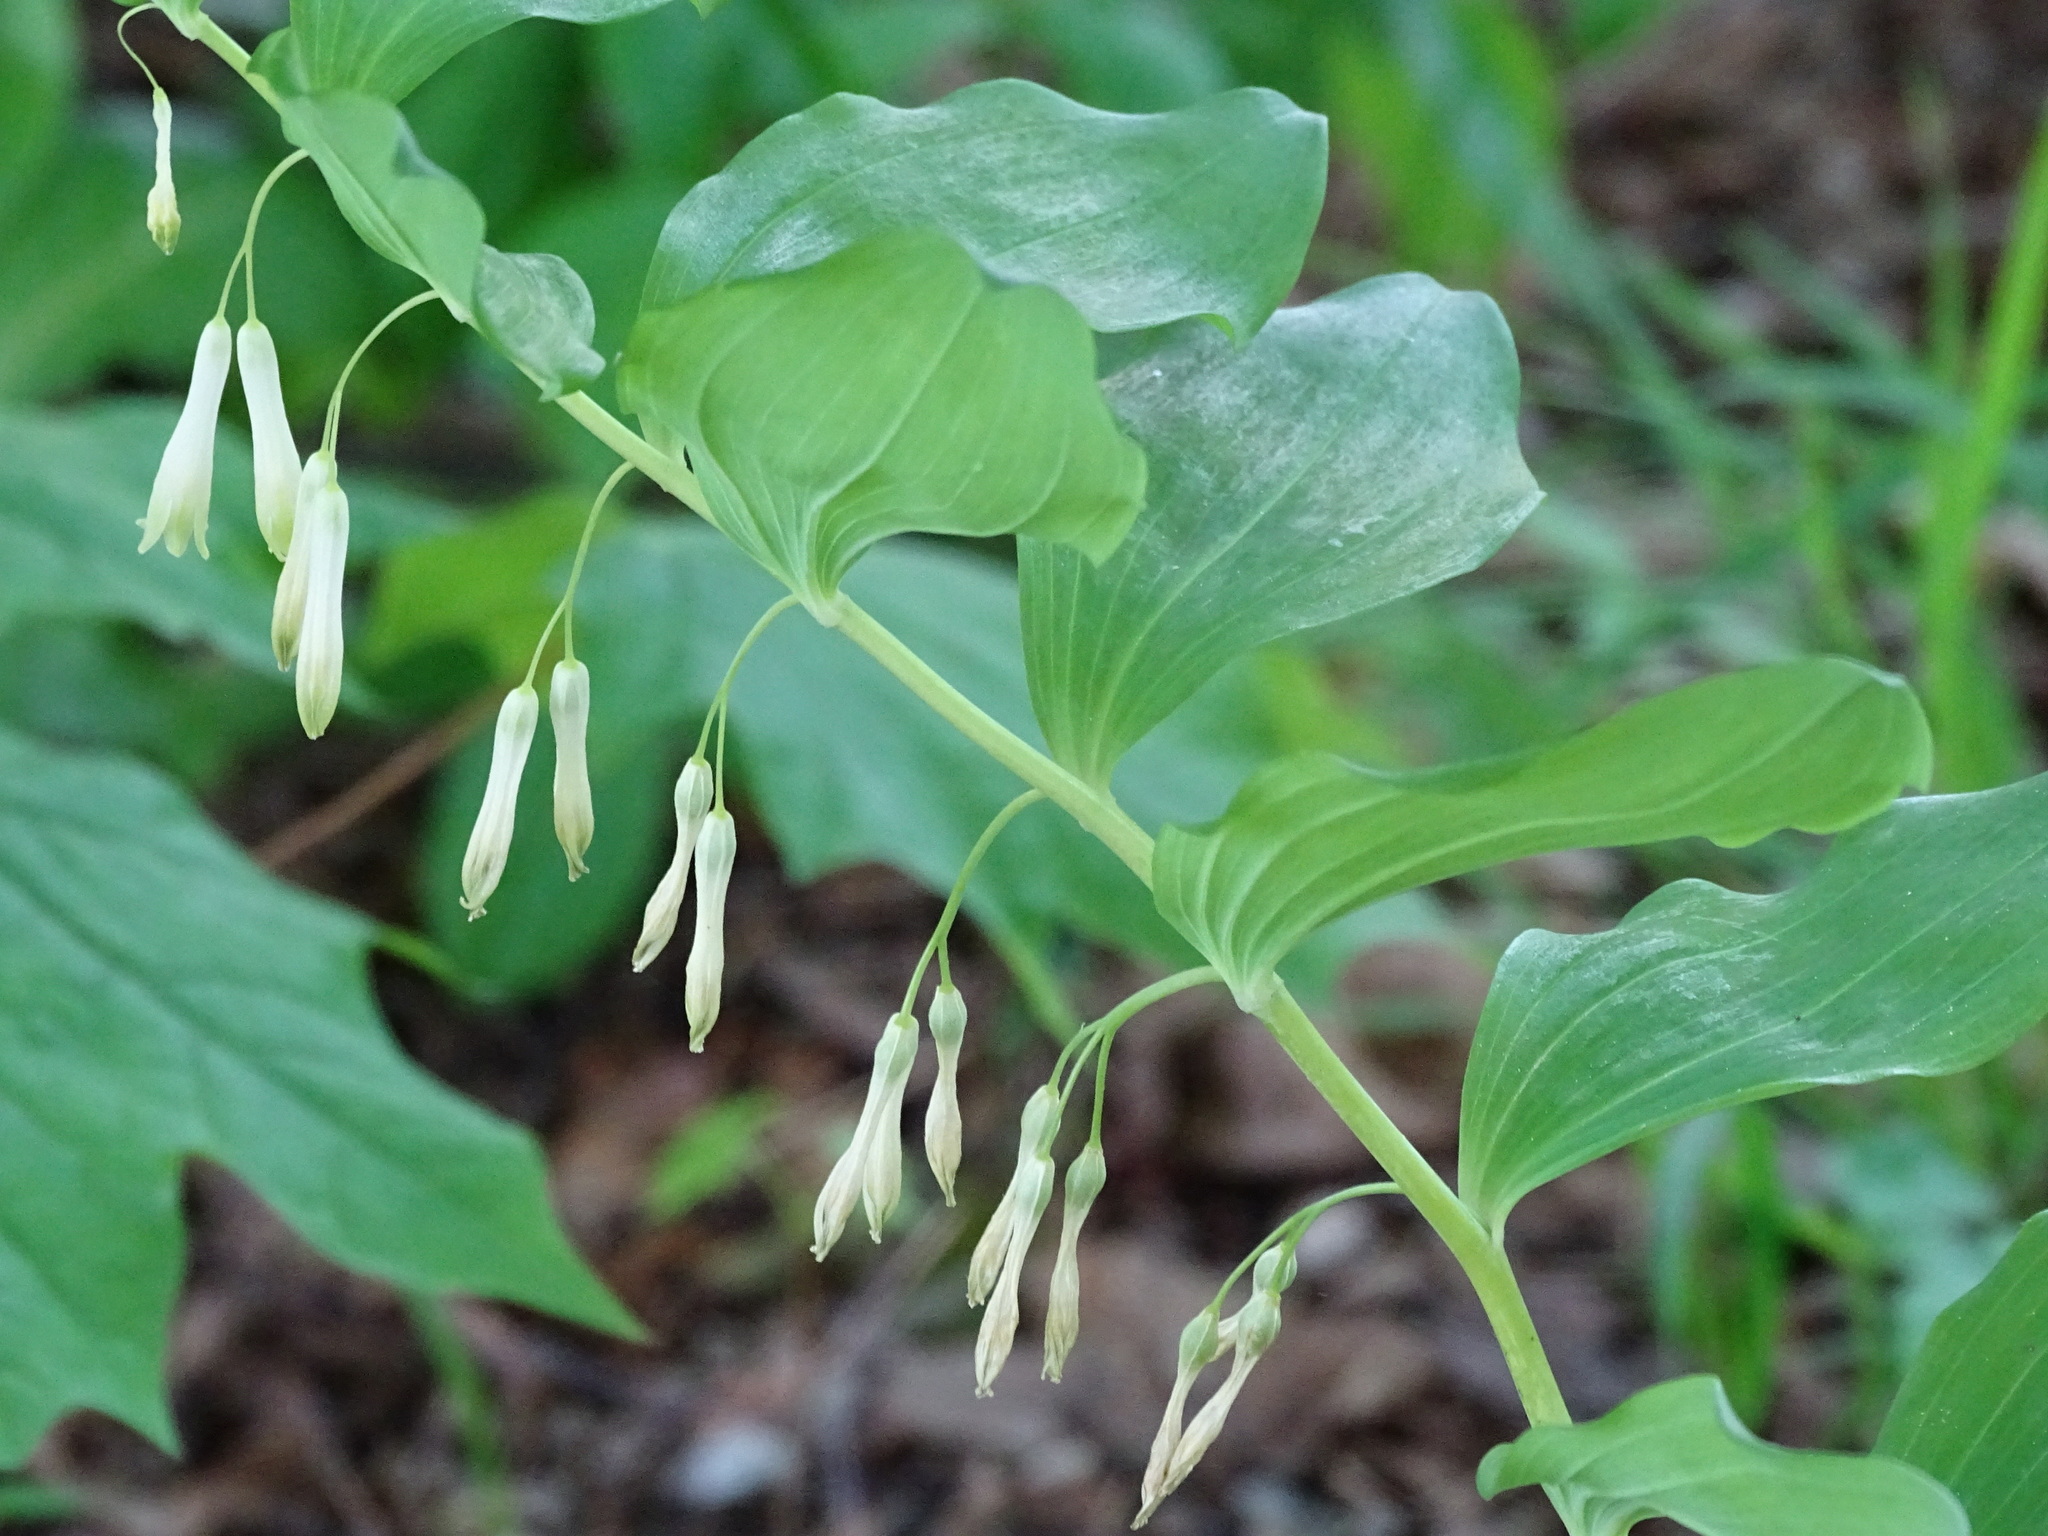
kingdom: Plantae
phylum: Tracheophyta
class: Liliopsida
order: Asparagales
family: Asparagaceae
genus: Polygonatum
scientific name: Polygonatum multiflorum
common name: Solomon's-seal
